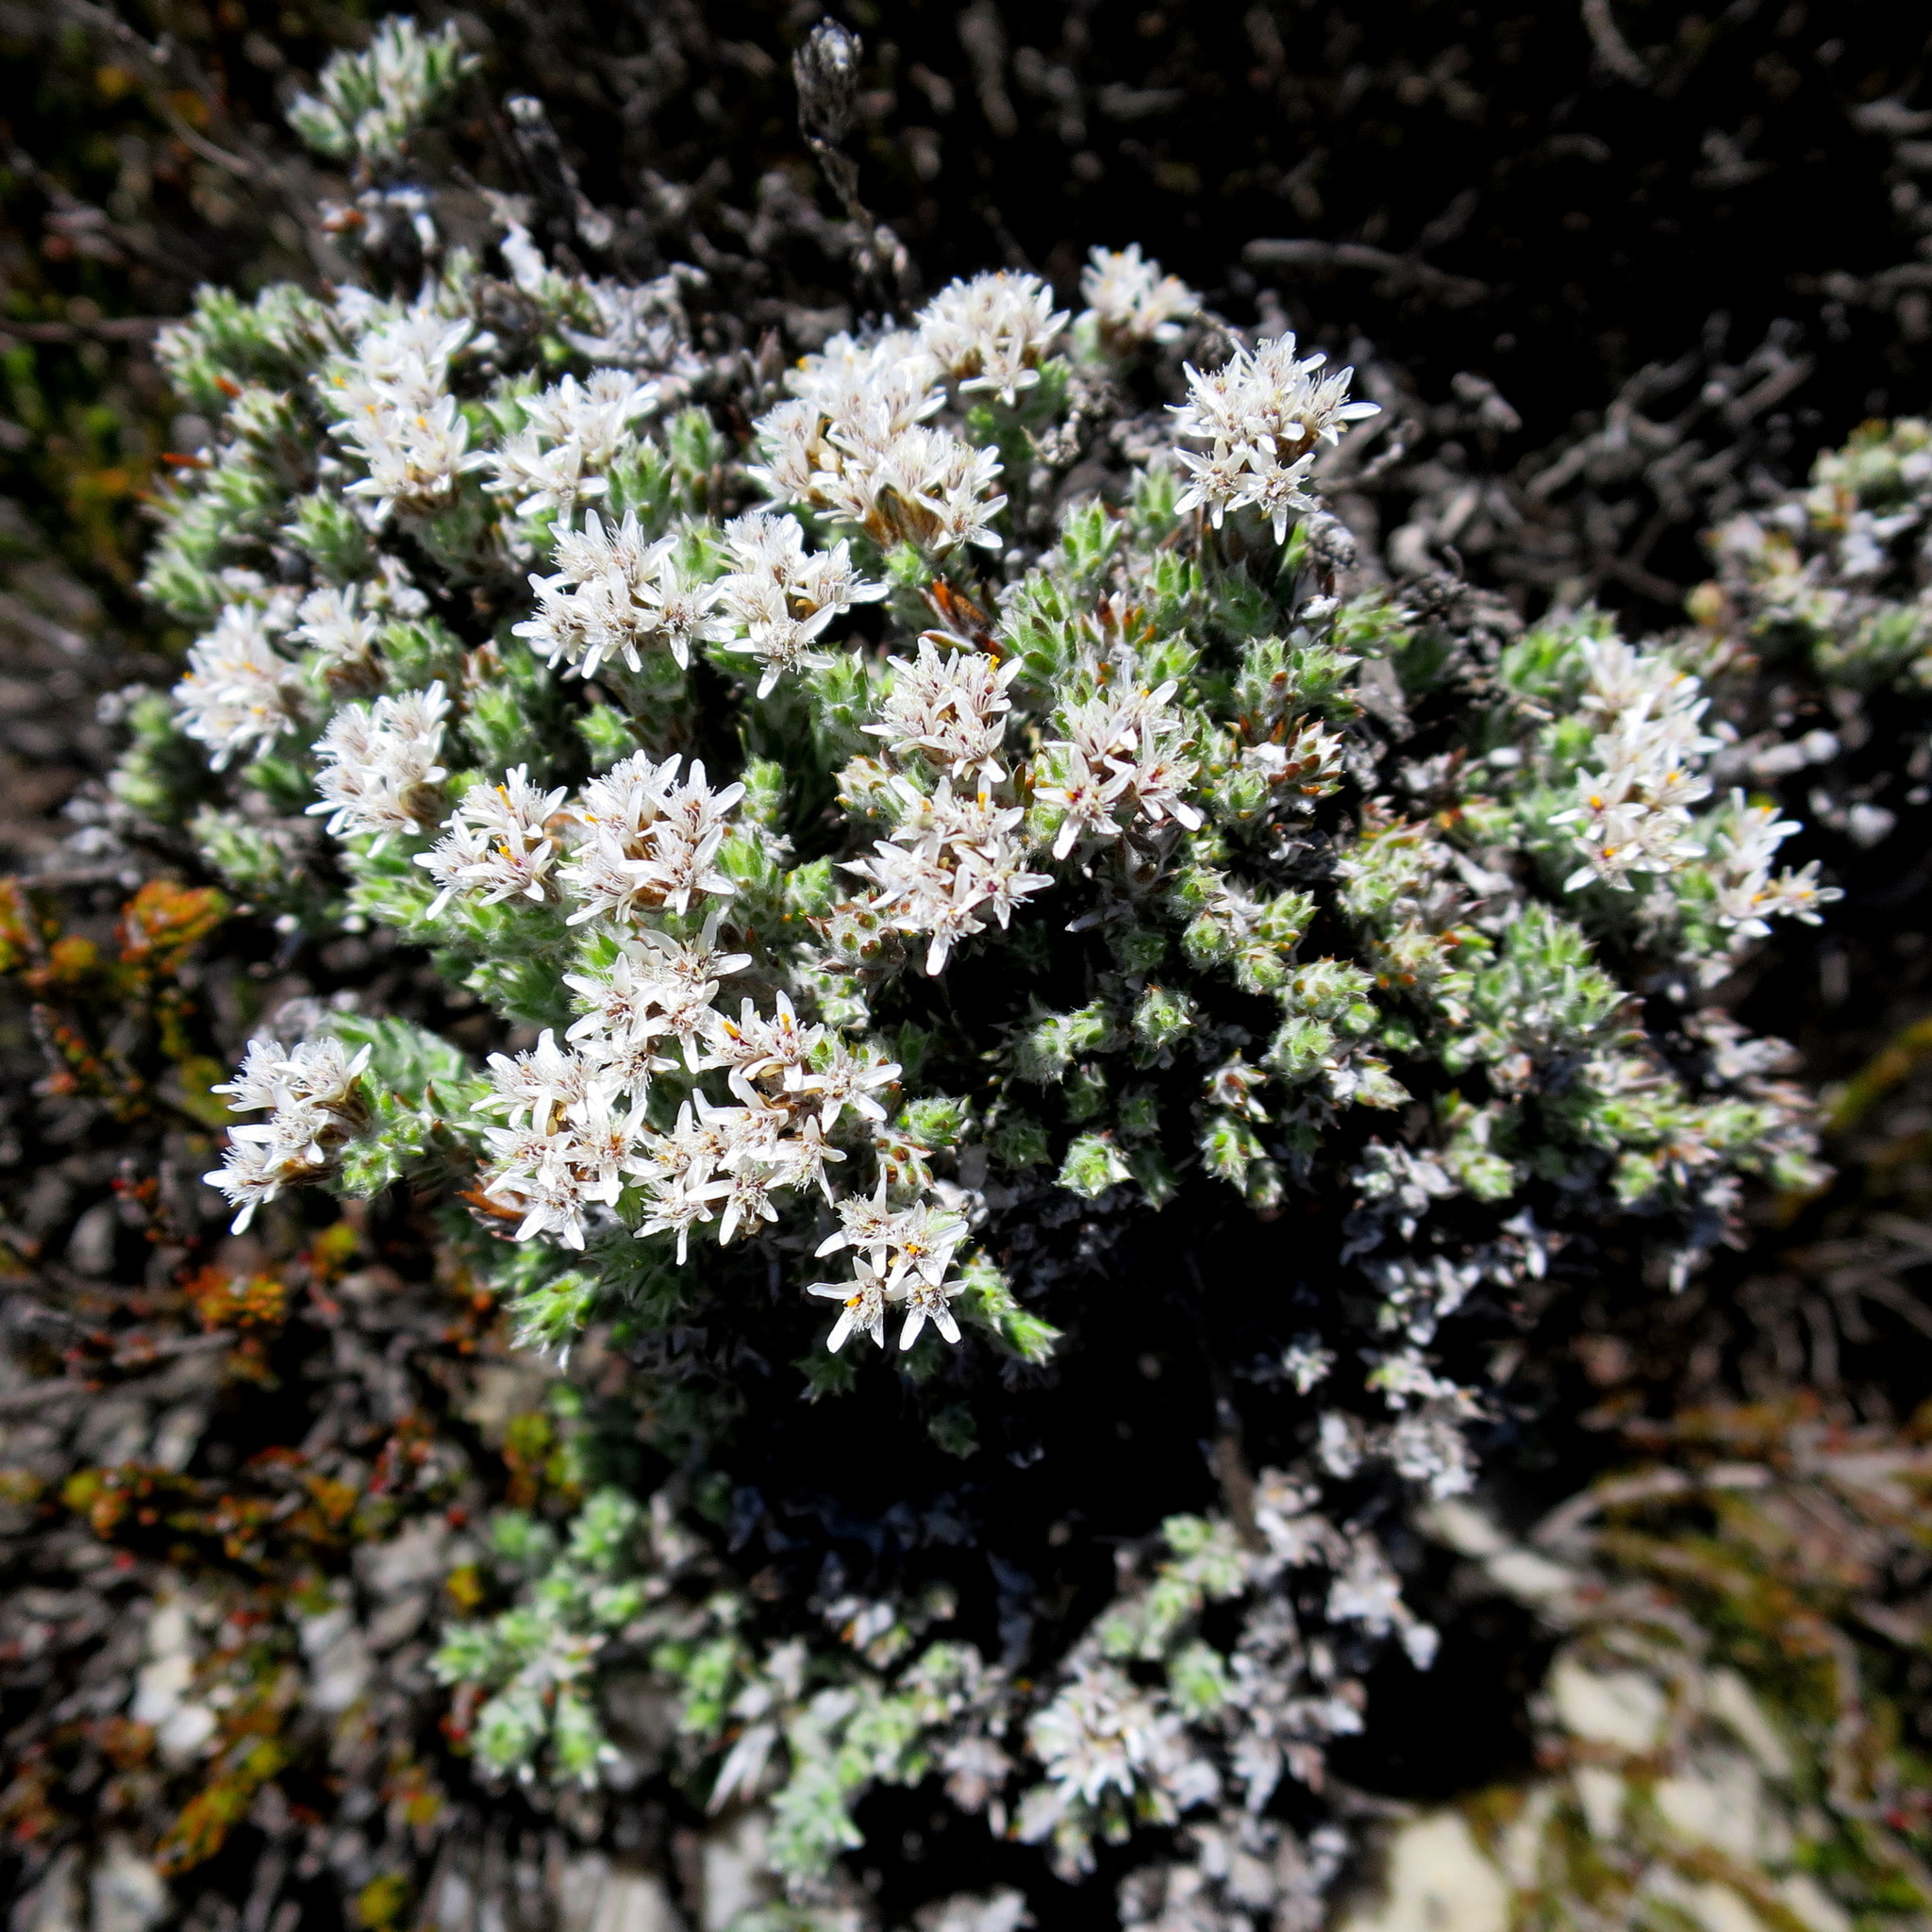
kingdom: Plantae
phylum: Tracheophyta
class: Magnoliopsida
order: Asterales
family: Asteraceae
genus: Metalasia
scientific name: Metalasia strictifolia
